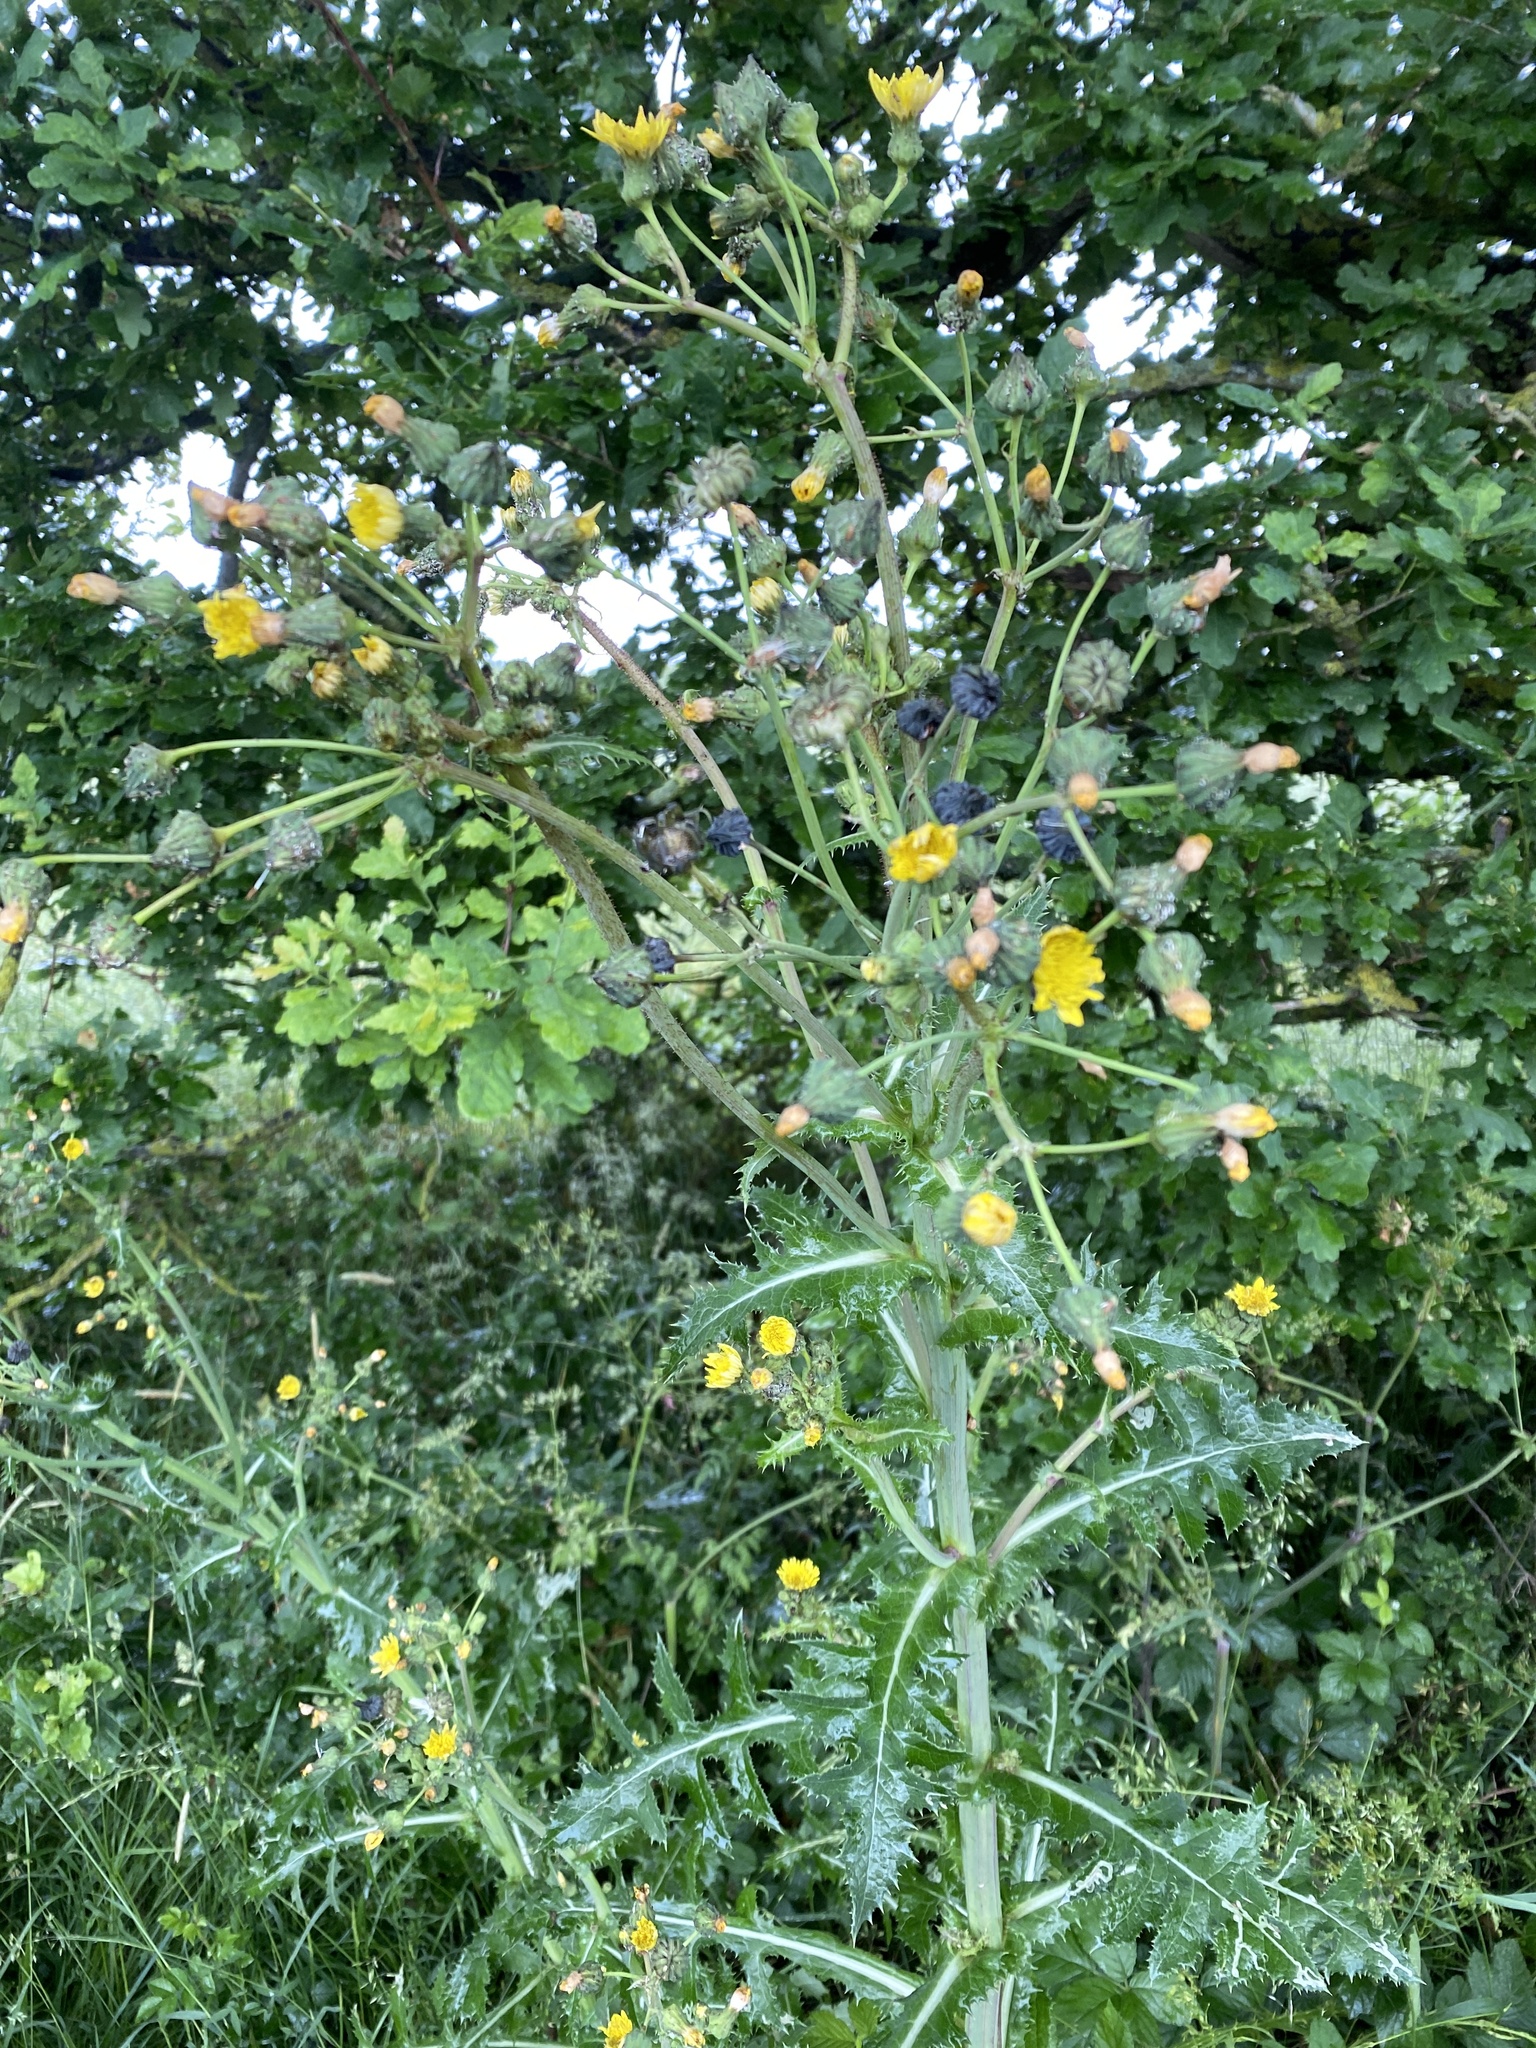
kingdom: Plantae
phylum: Tracheophyta
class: Magnoliopsida
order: Asterales
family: Asteraceae
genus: Sonchus
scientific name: Sonchus asper
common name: Prickly sow-thistle
